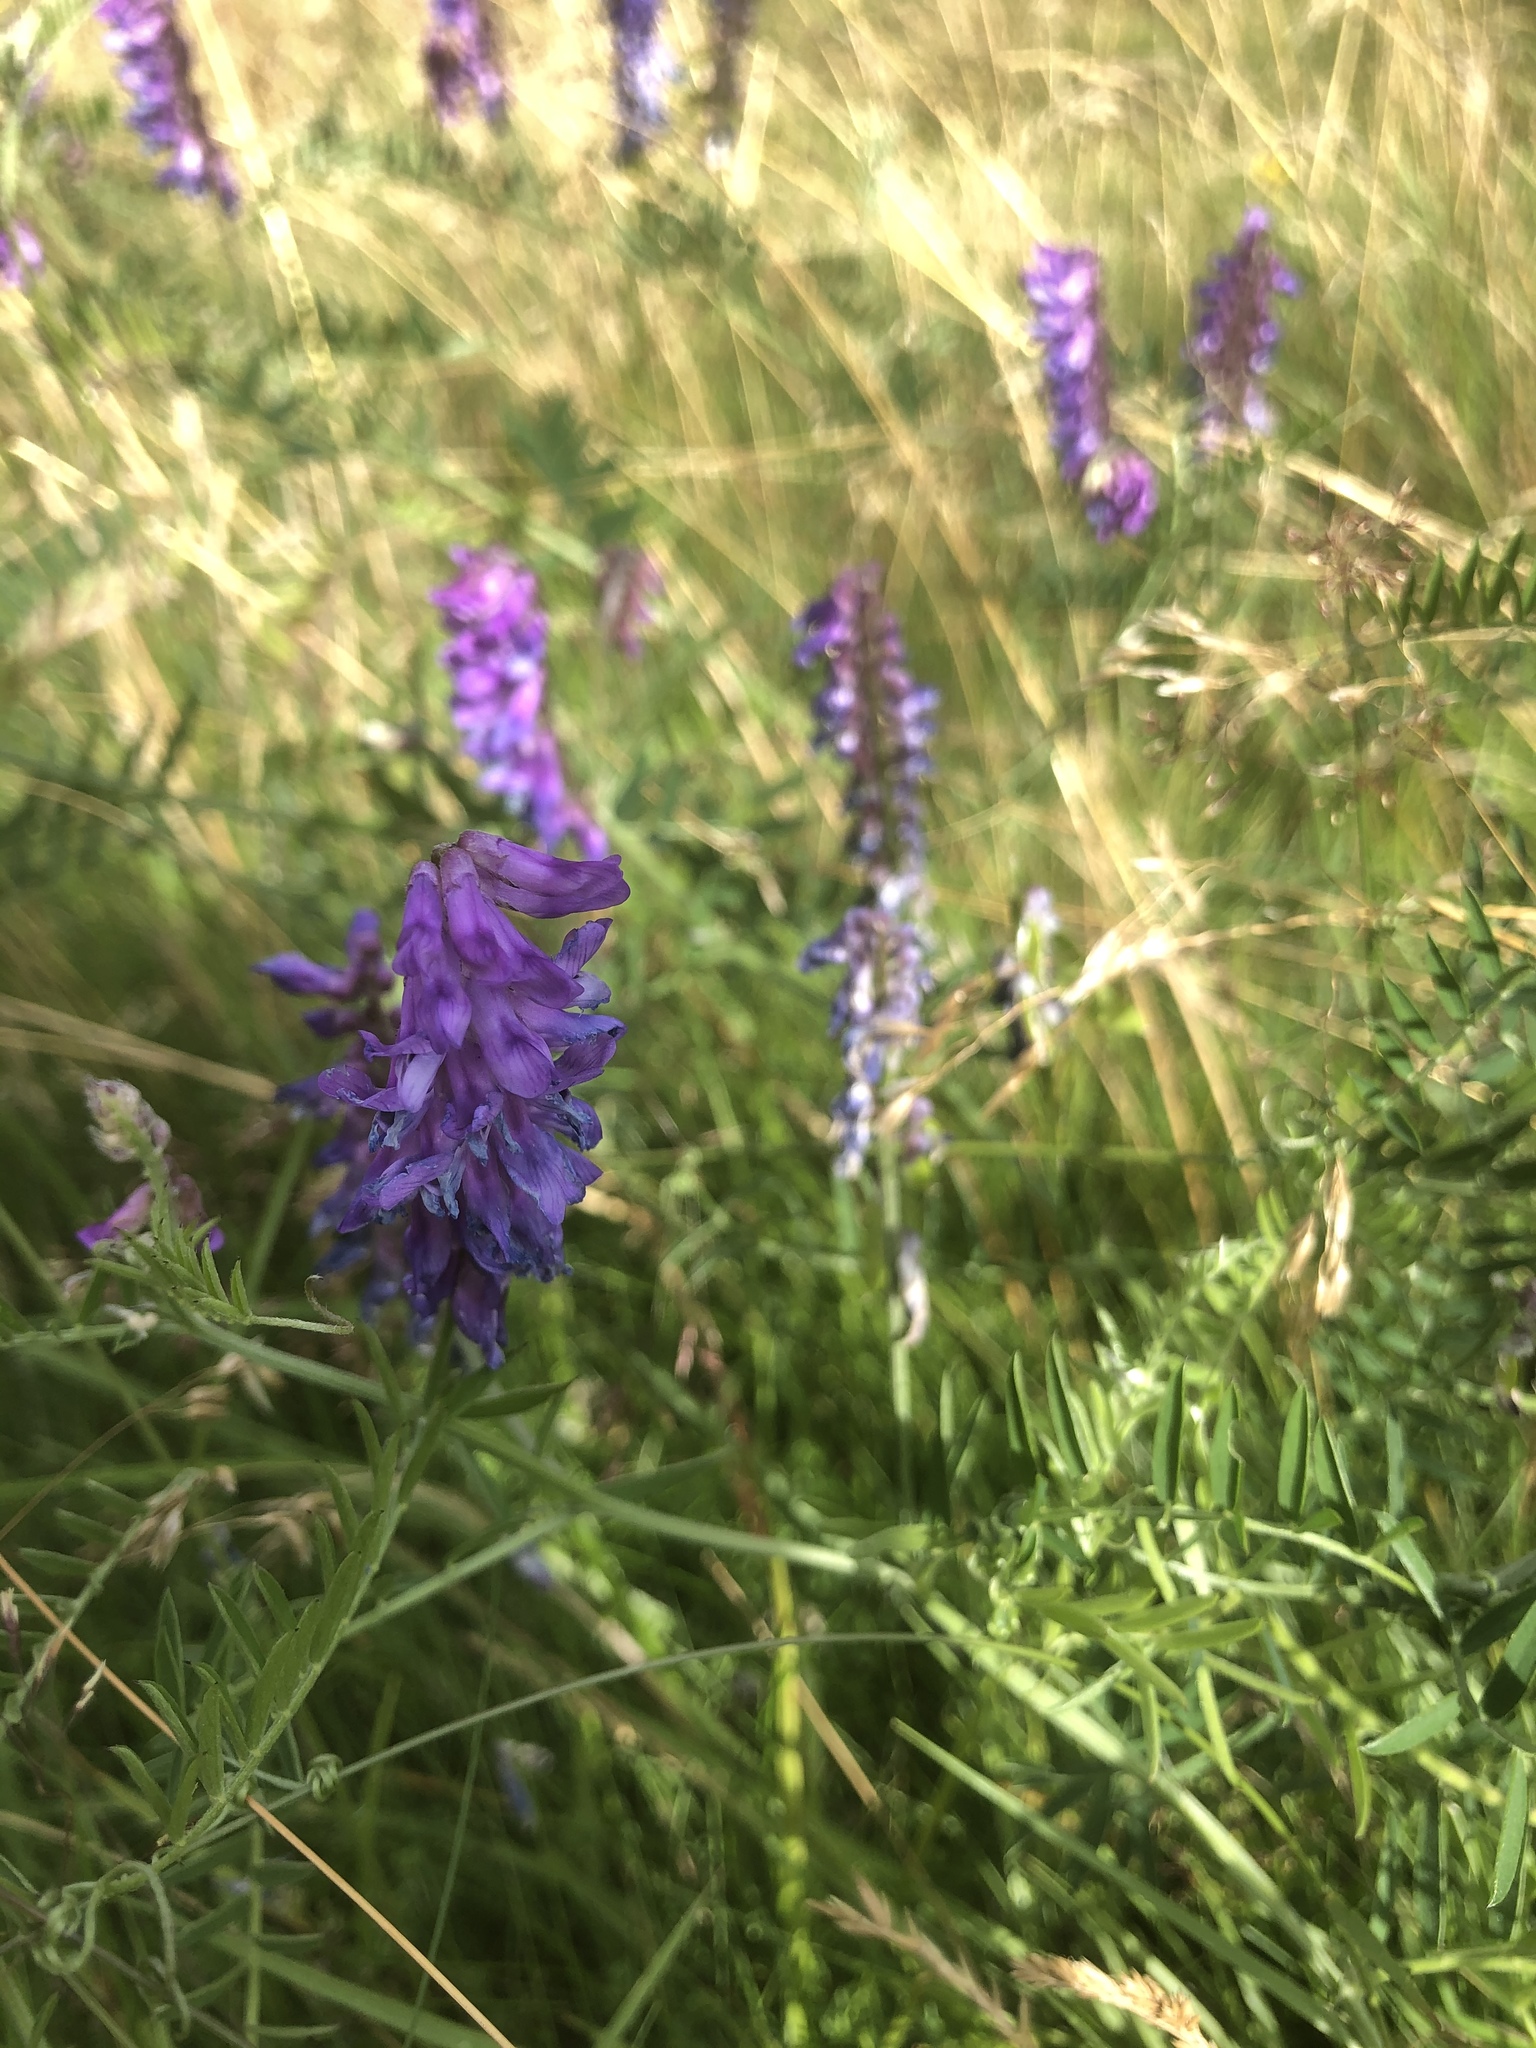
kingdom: Plantae
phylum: Tracheophyta
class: Magnoliopsida
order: Fabales
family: Fabaceae
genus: Vicia
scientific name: Vicia cracca
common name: Bird vetch
